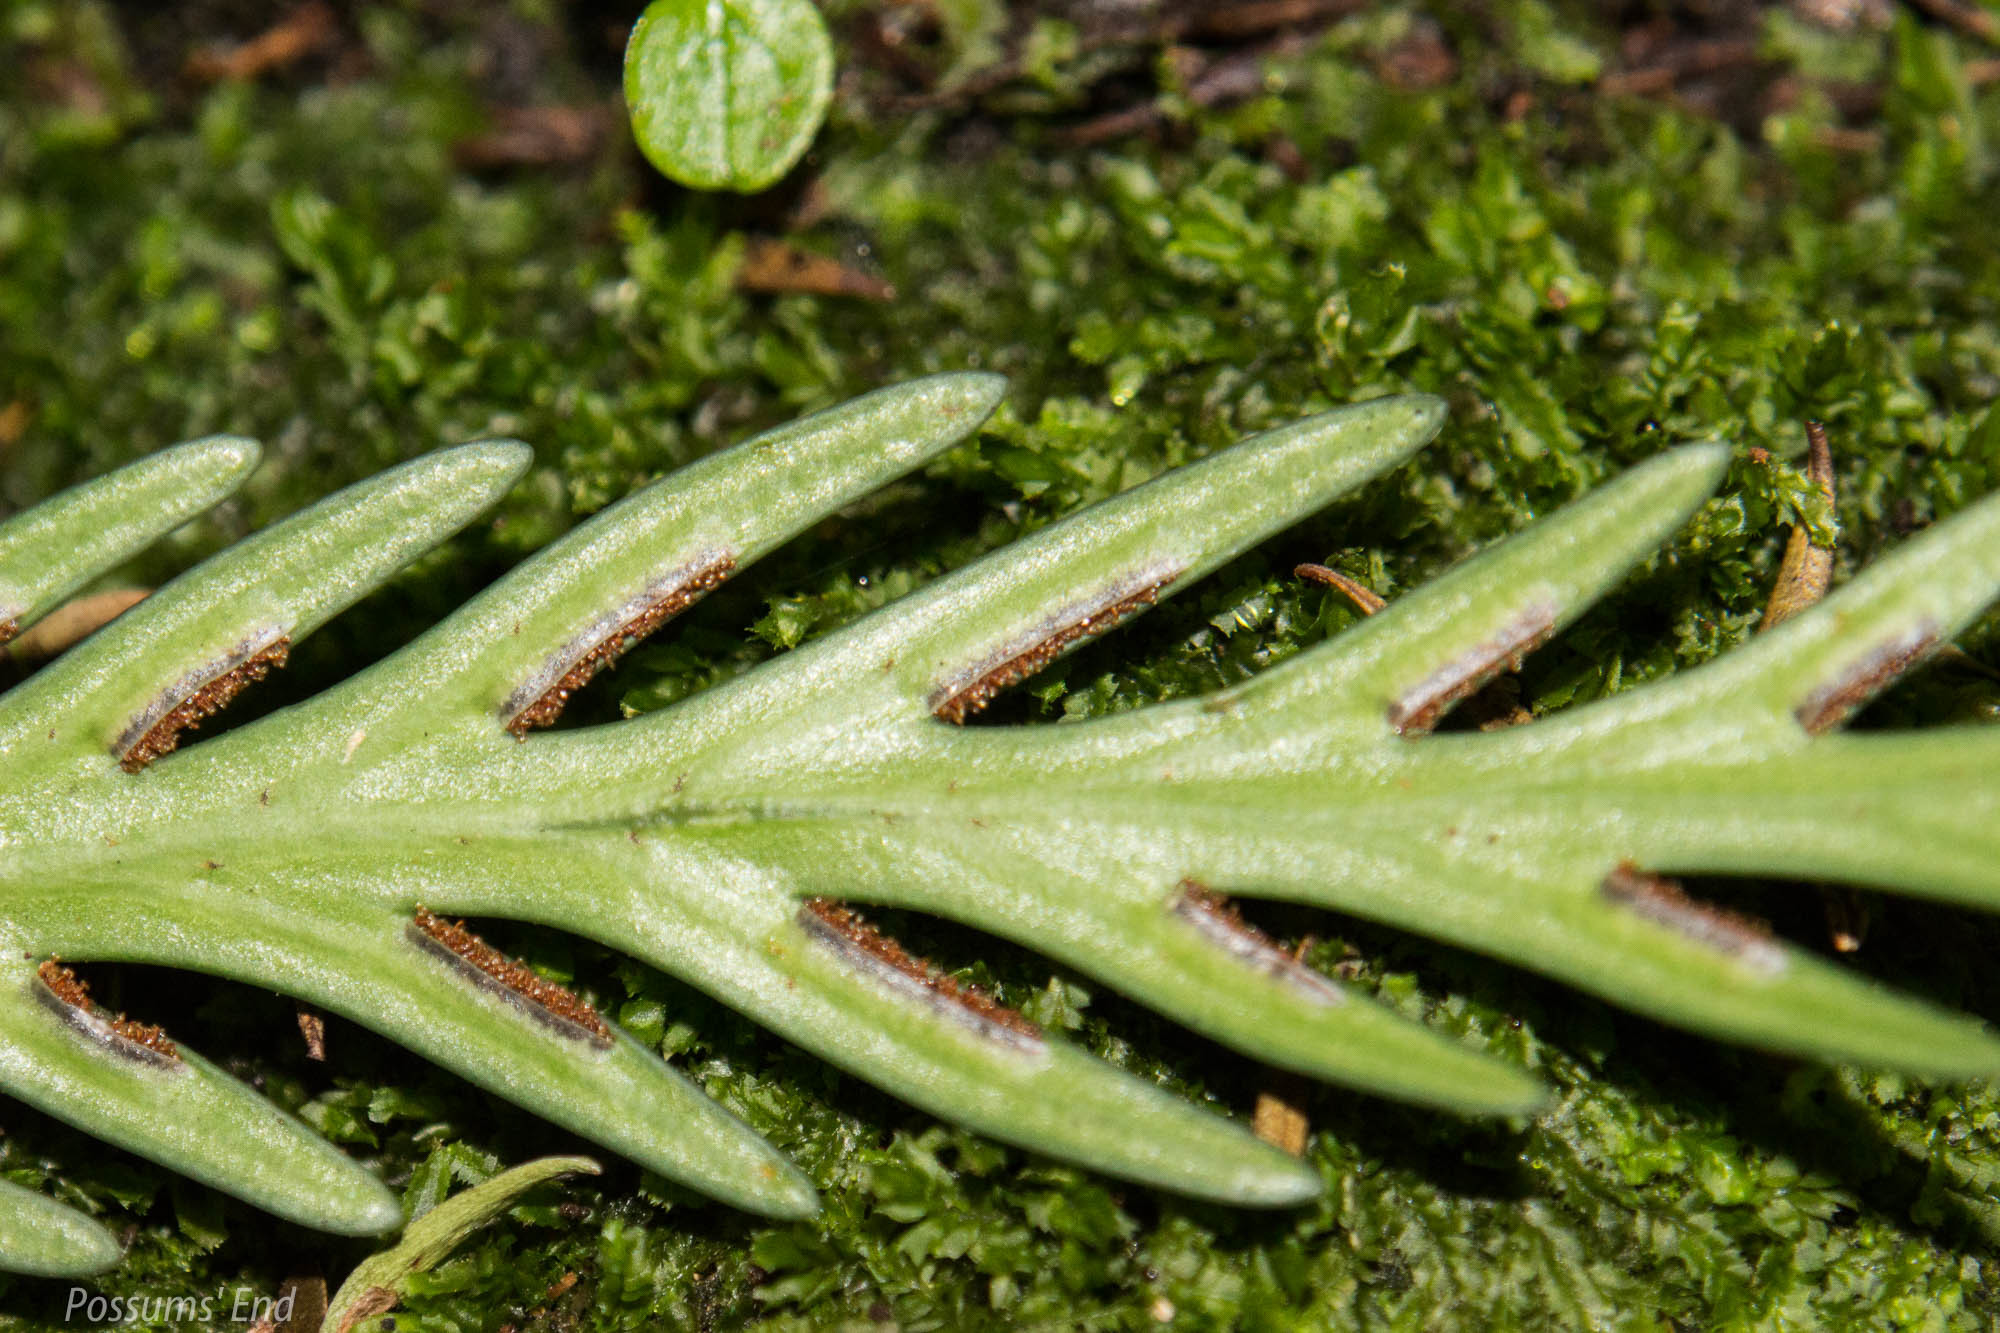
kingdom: Plantae
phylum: Tracheophyta
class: Polypodiopsida
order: Polypodiales
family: Aspleniaceae
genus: Asplenium
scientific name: Asplenium flaccidum
